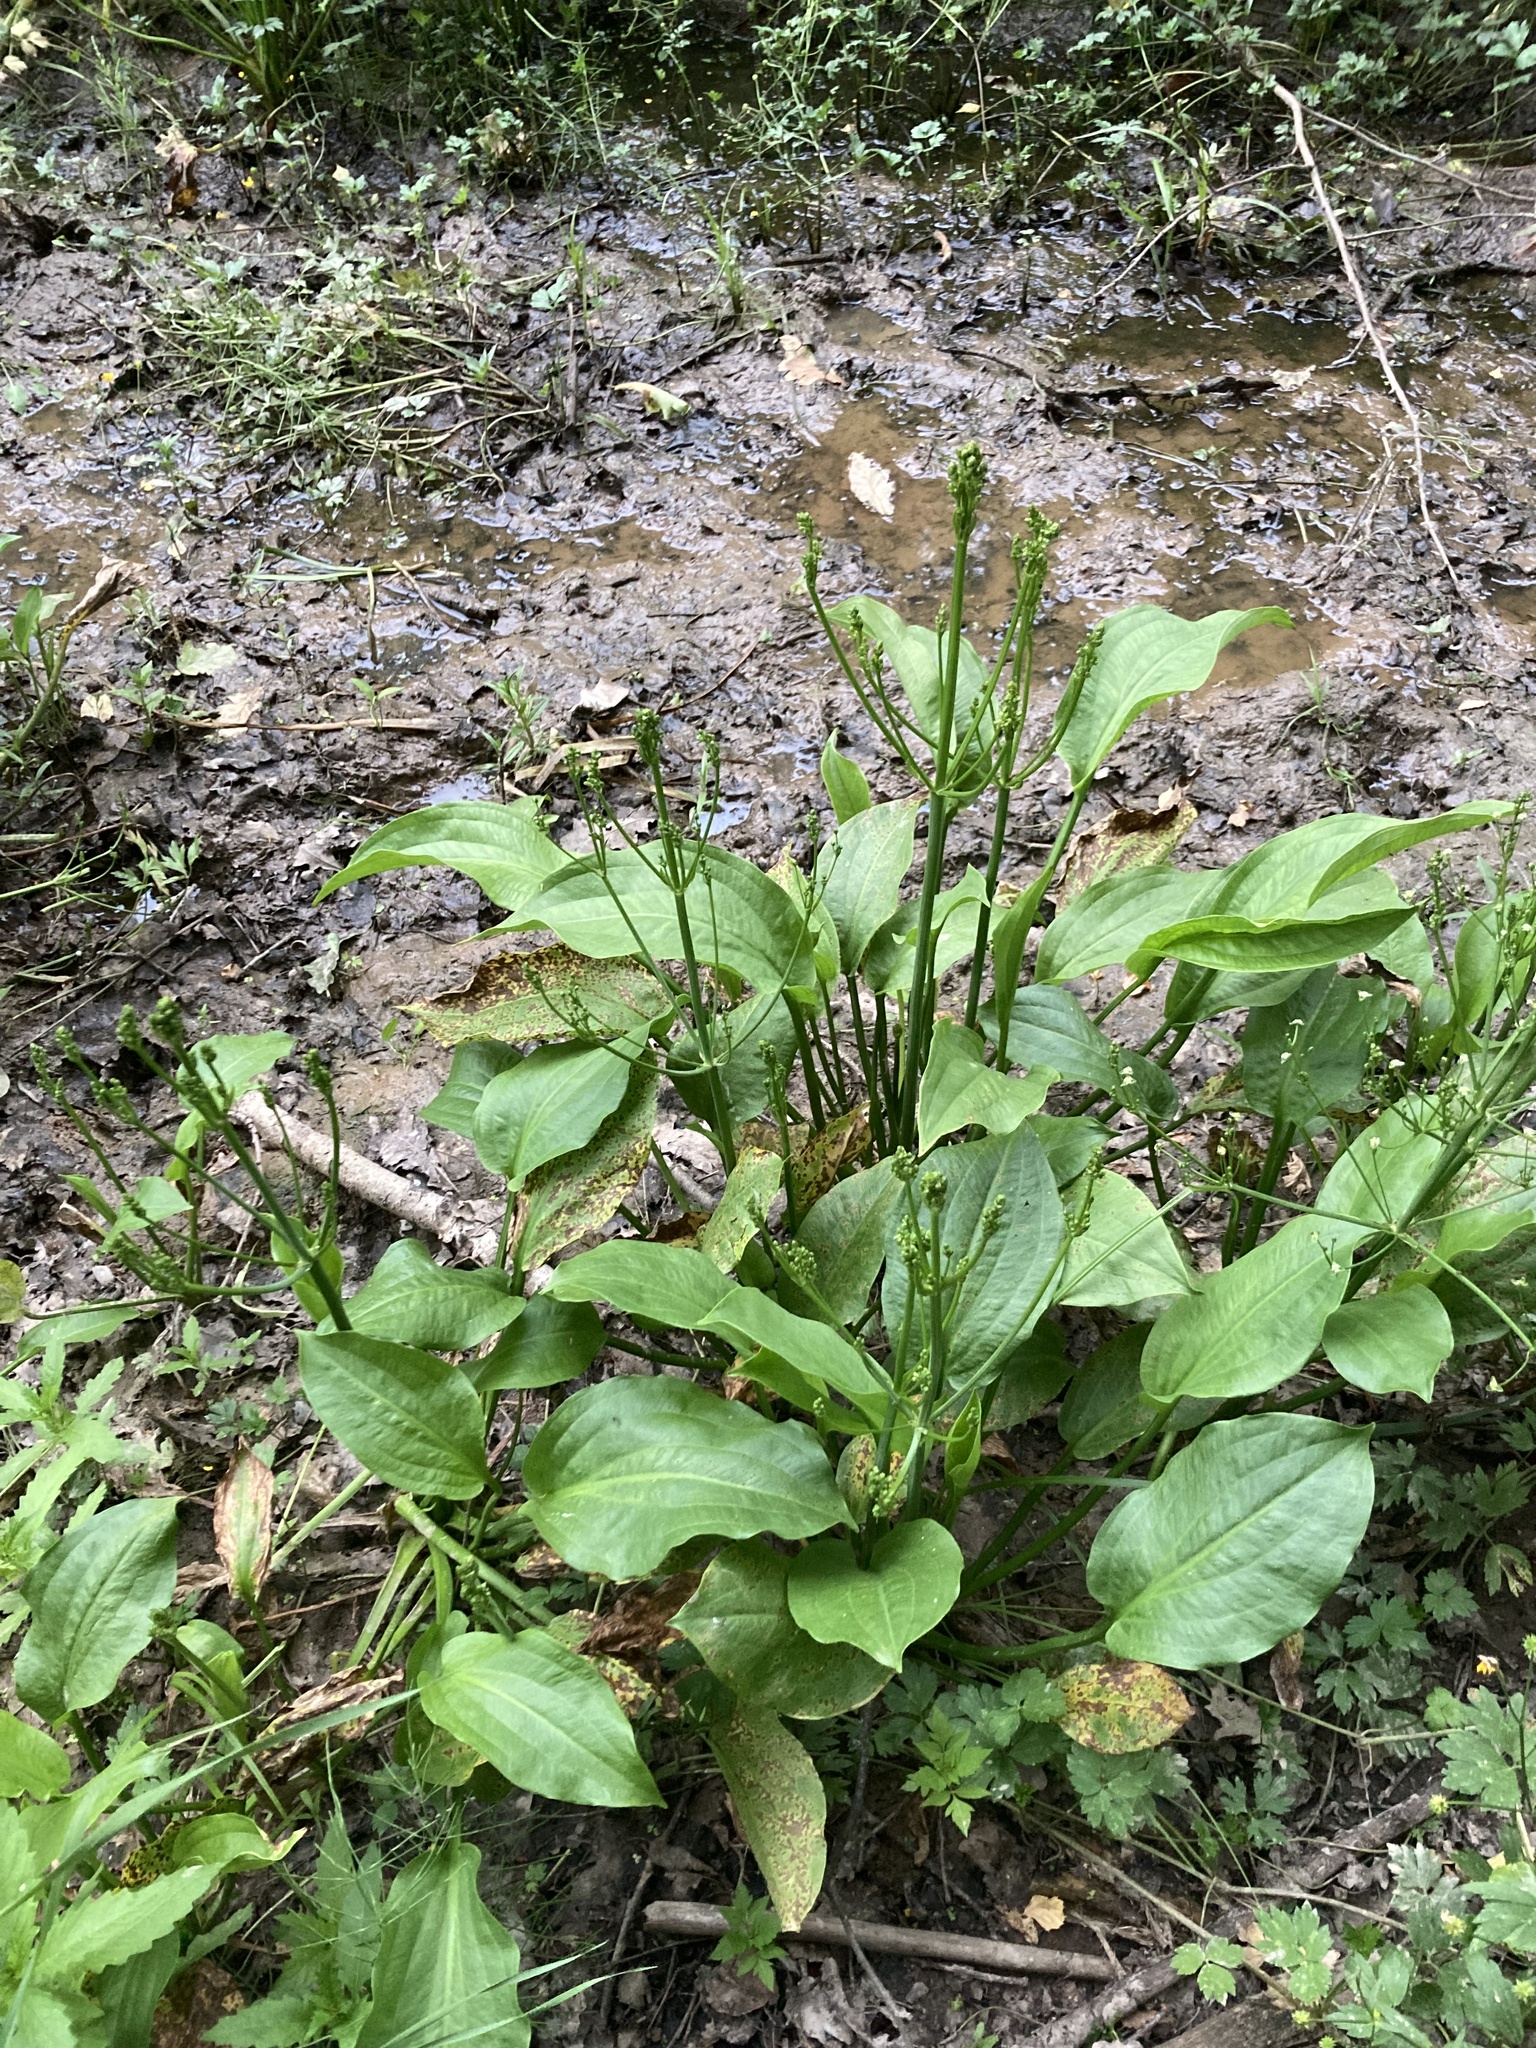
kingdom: Plantae
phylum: Tracheophyta
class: Liliopsida
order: Alismatales
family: Alismataceae
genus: Alisma
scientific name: Alisma plantago-aquatica
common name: Water-plantain
